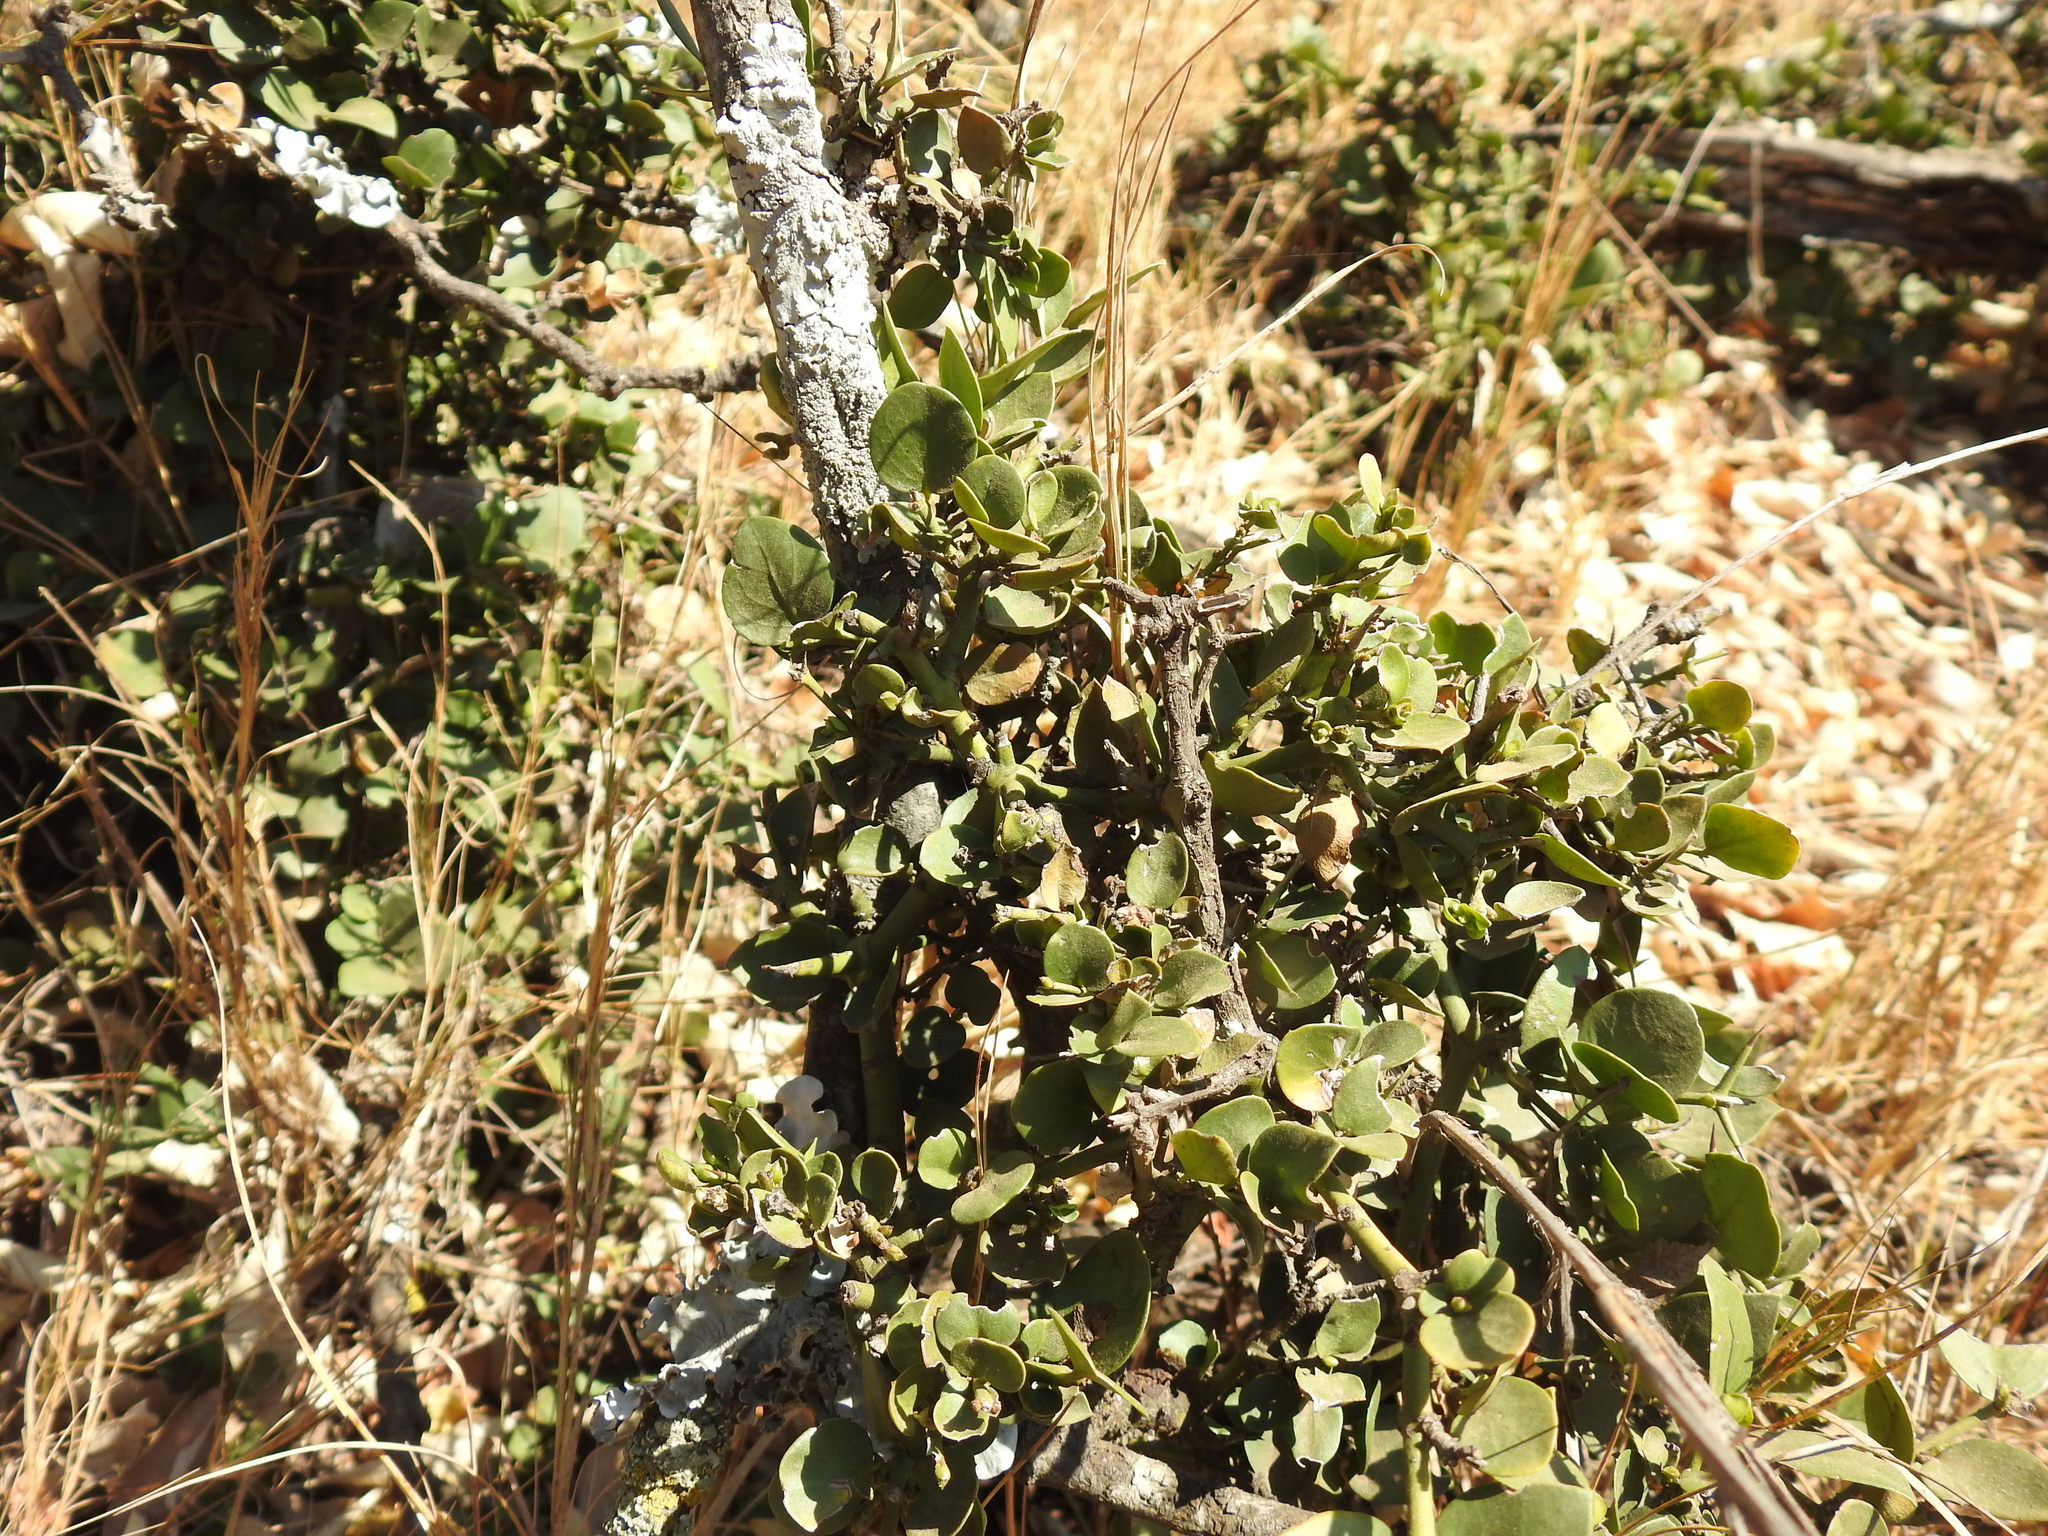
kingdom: Plantae
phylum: Tracheophyta
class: Magnoliopsida
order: Gentianales
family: Apocynaceae
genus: Carissa
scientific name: Carissa bispinosa
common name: Forest num-num
